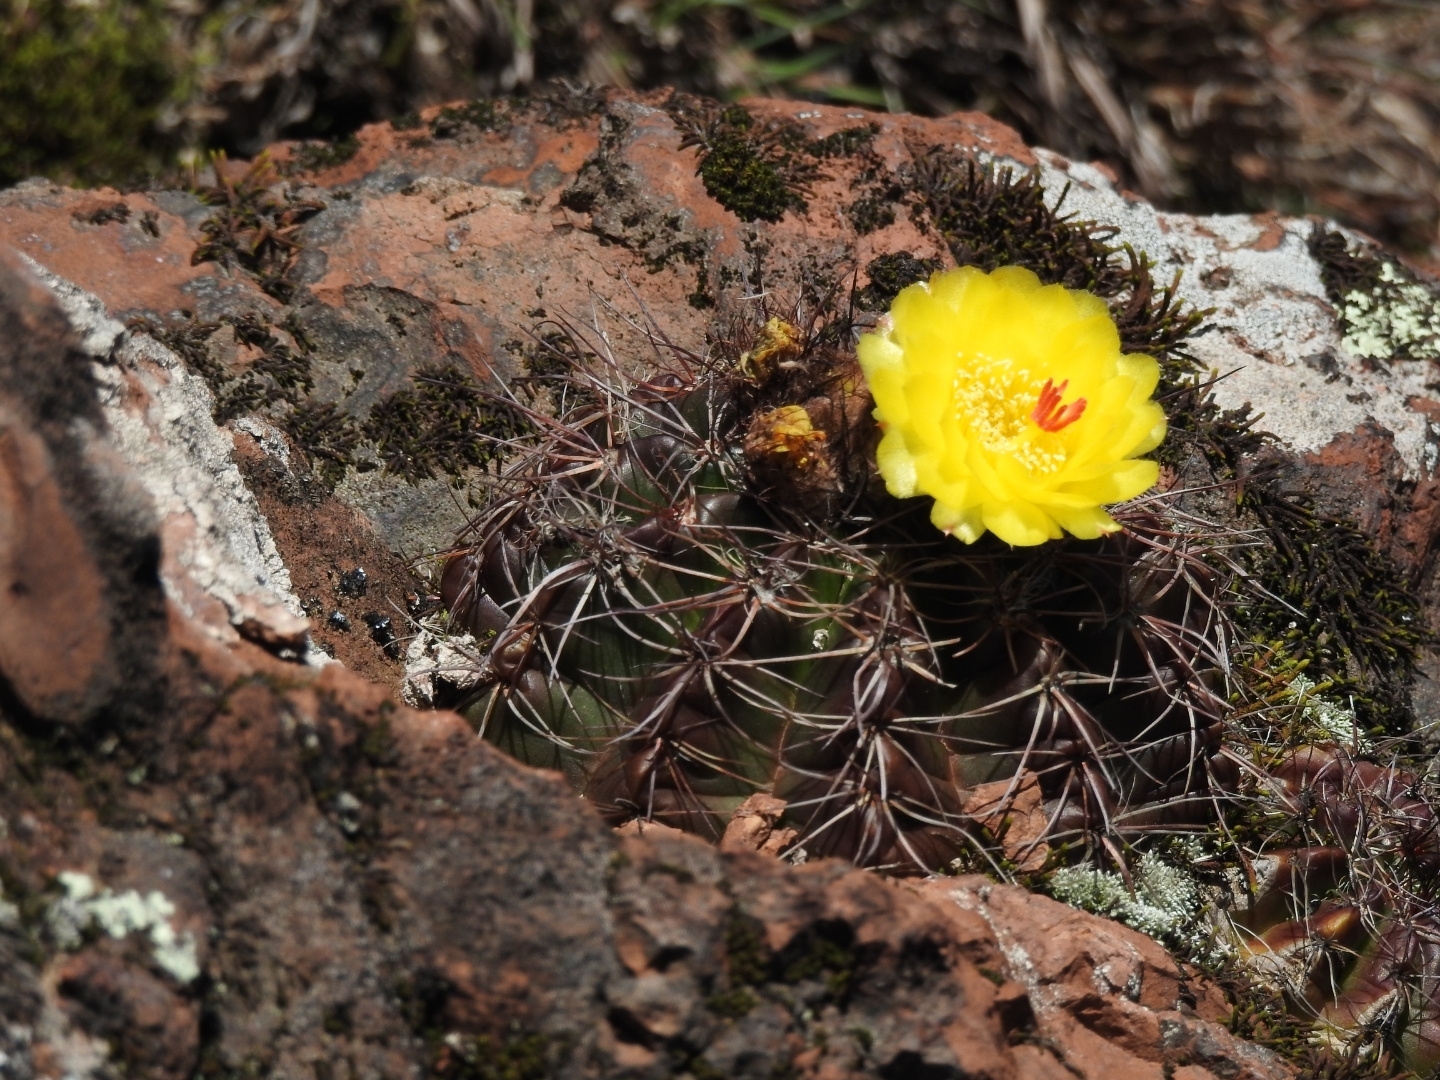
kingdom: Plantae
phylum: Tracheophyta
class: Magnoliopsida
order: Caryophyllales
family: Cactaceae
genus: Parodia
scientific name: Parodia ottonis
